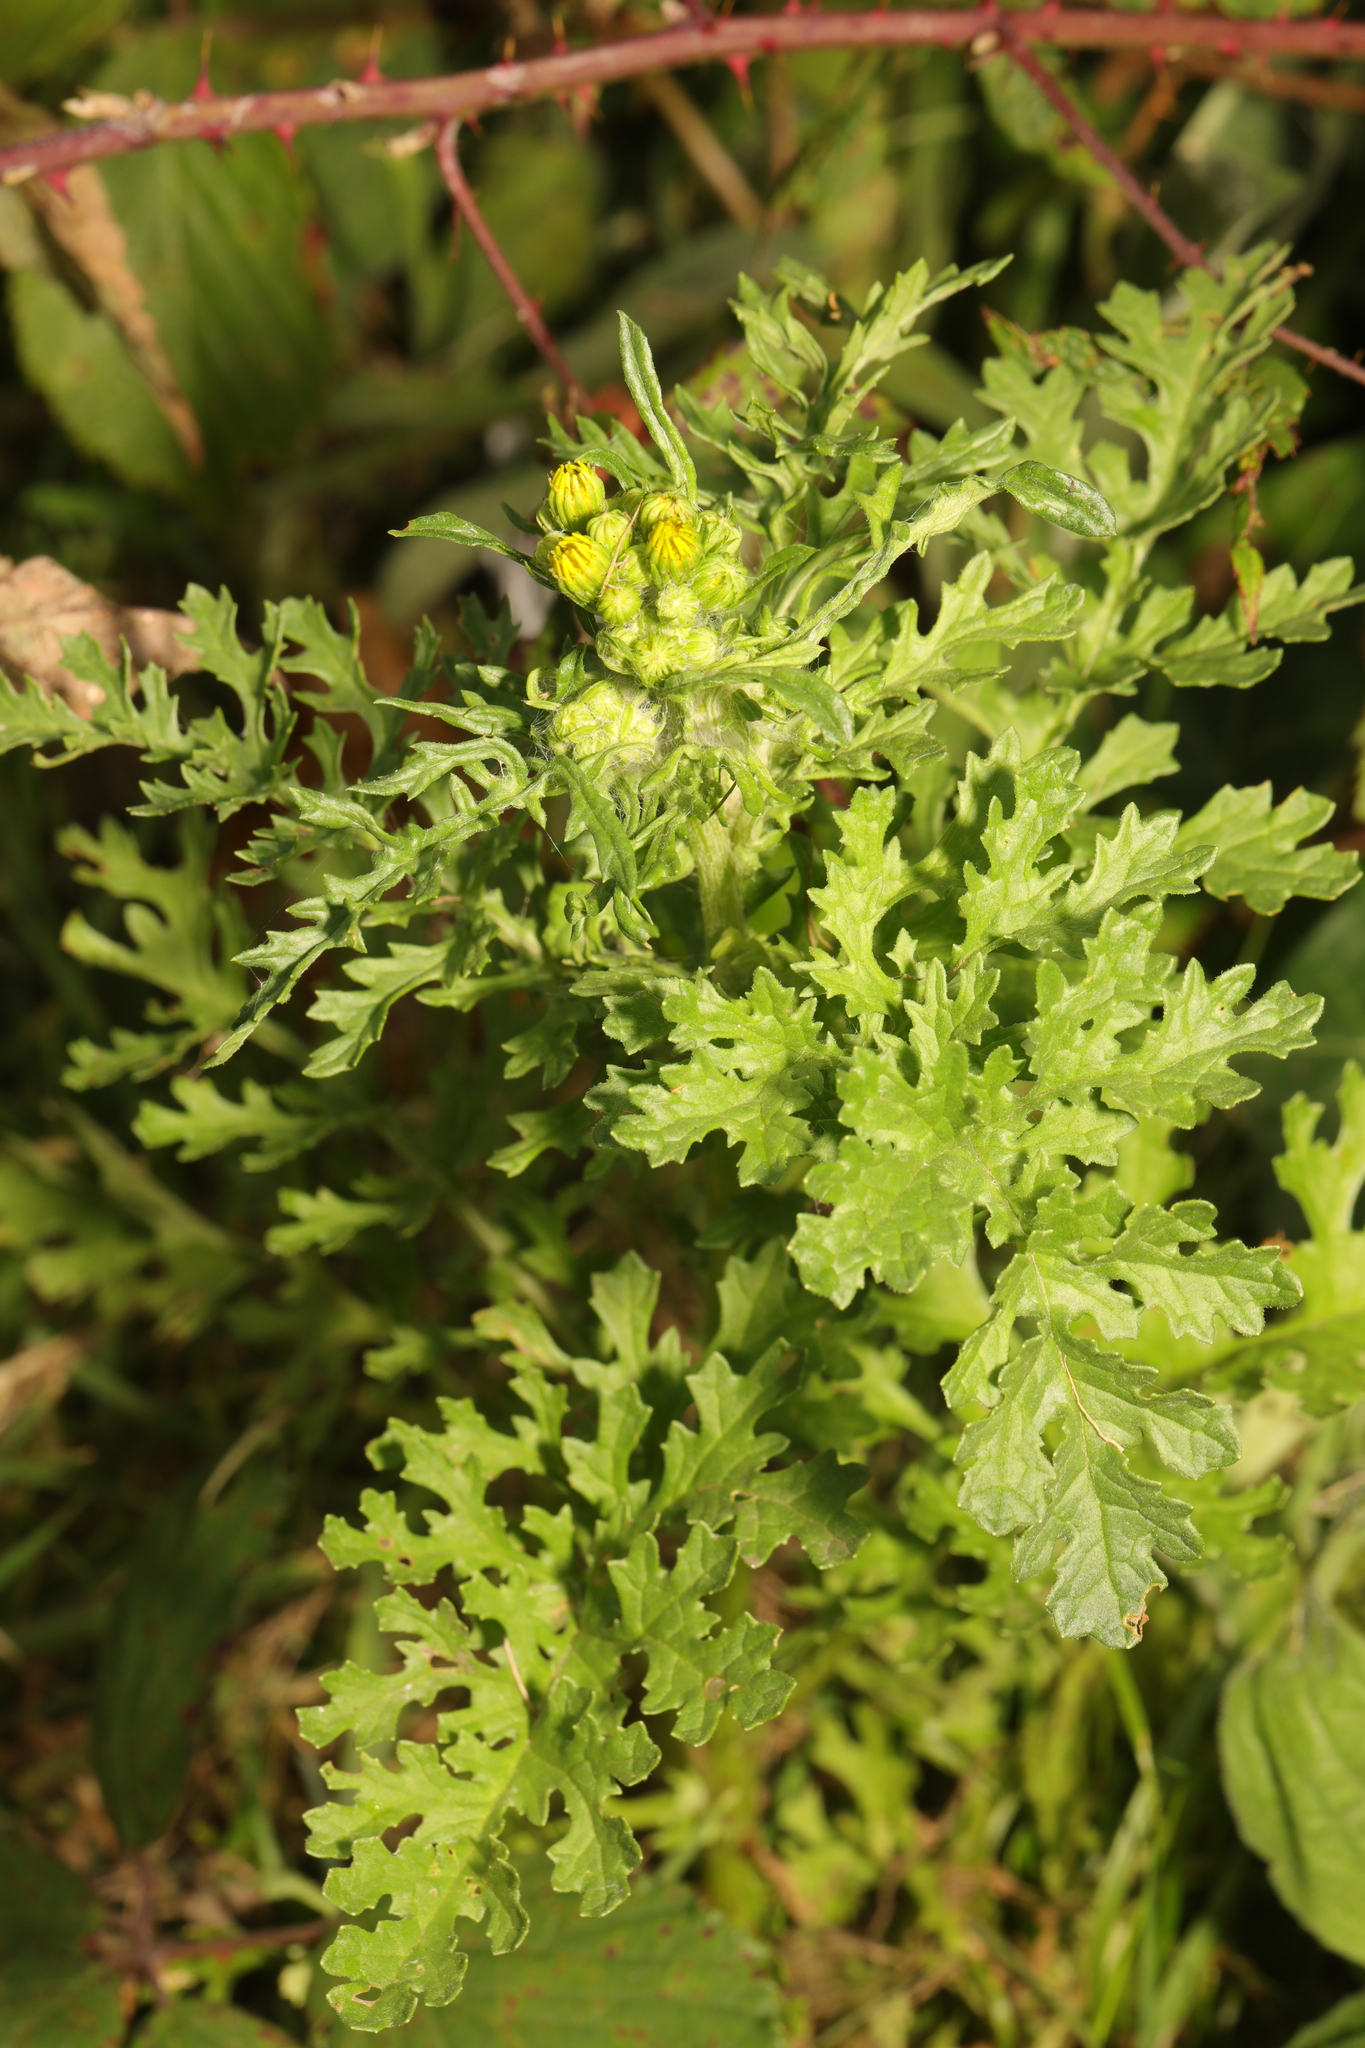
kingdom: Plantae
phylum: Tracheophyta
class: Magnoliopsida
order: Asterales
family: Asteraceae
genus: Jacobaea
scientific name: Jacobaea vulgaris
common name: Stinking willie
